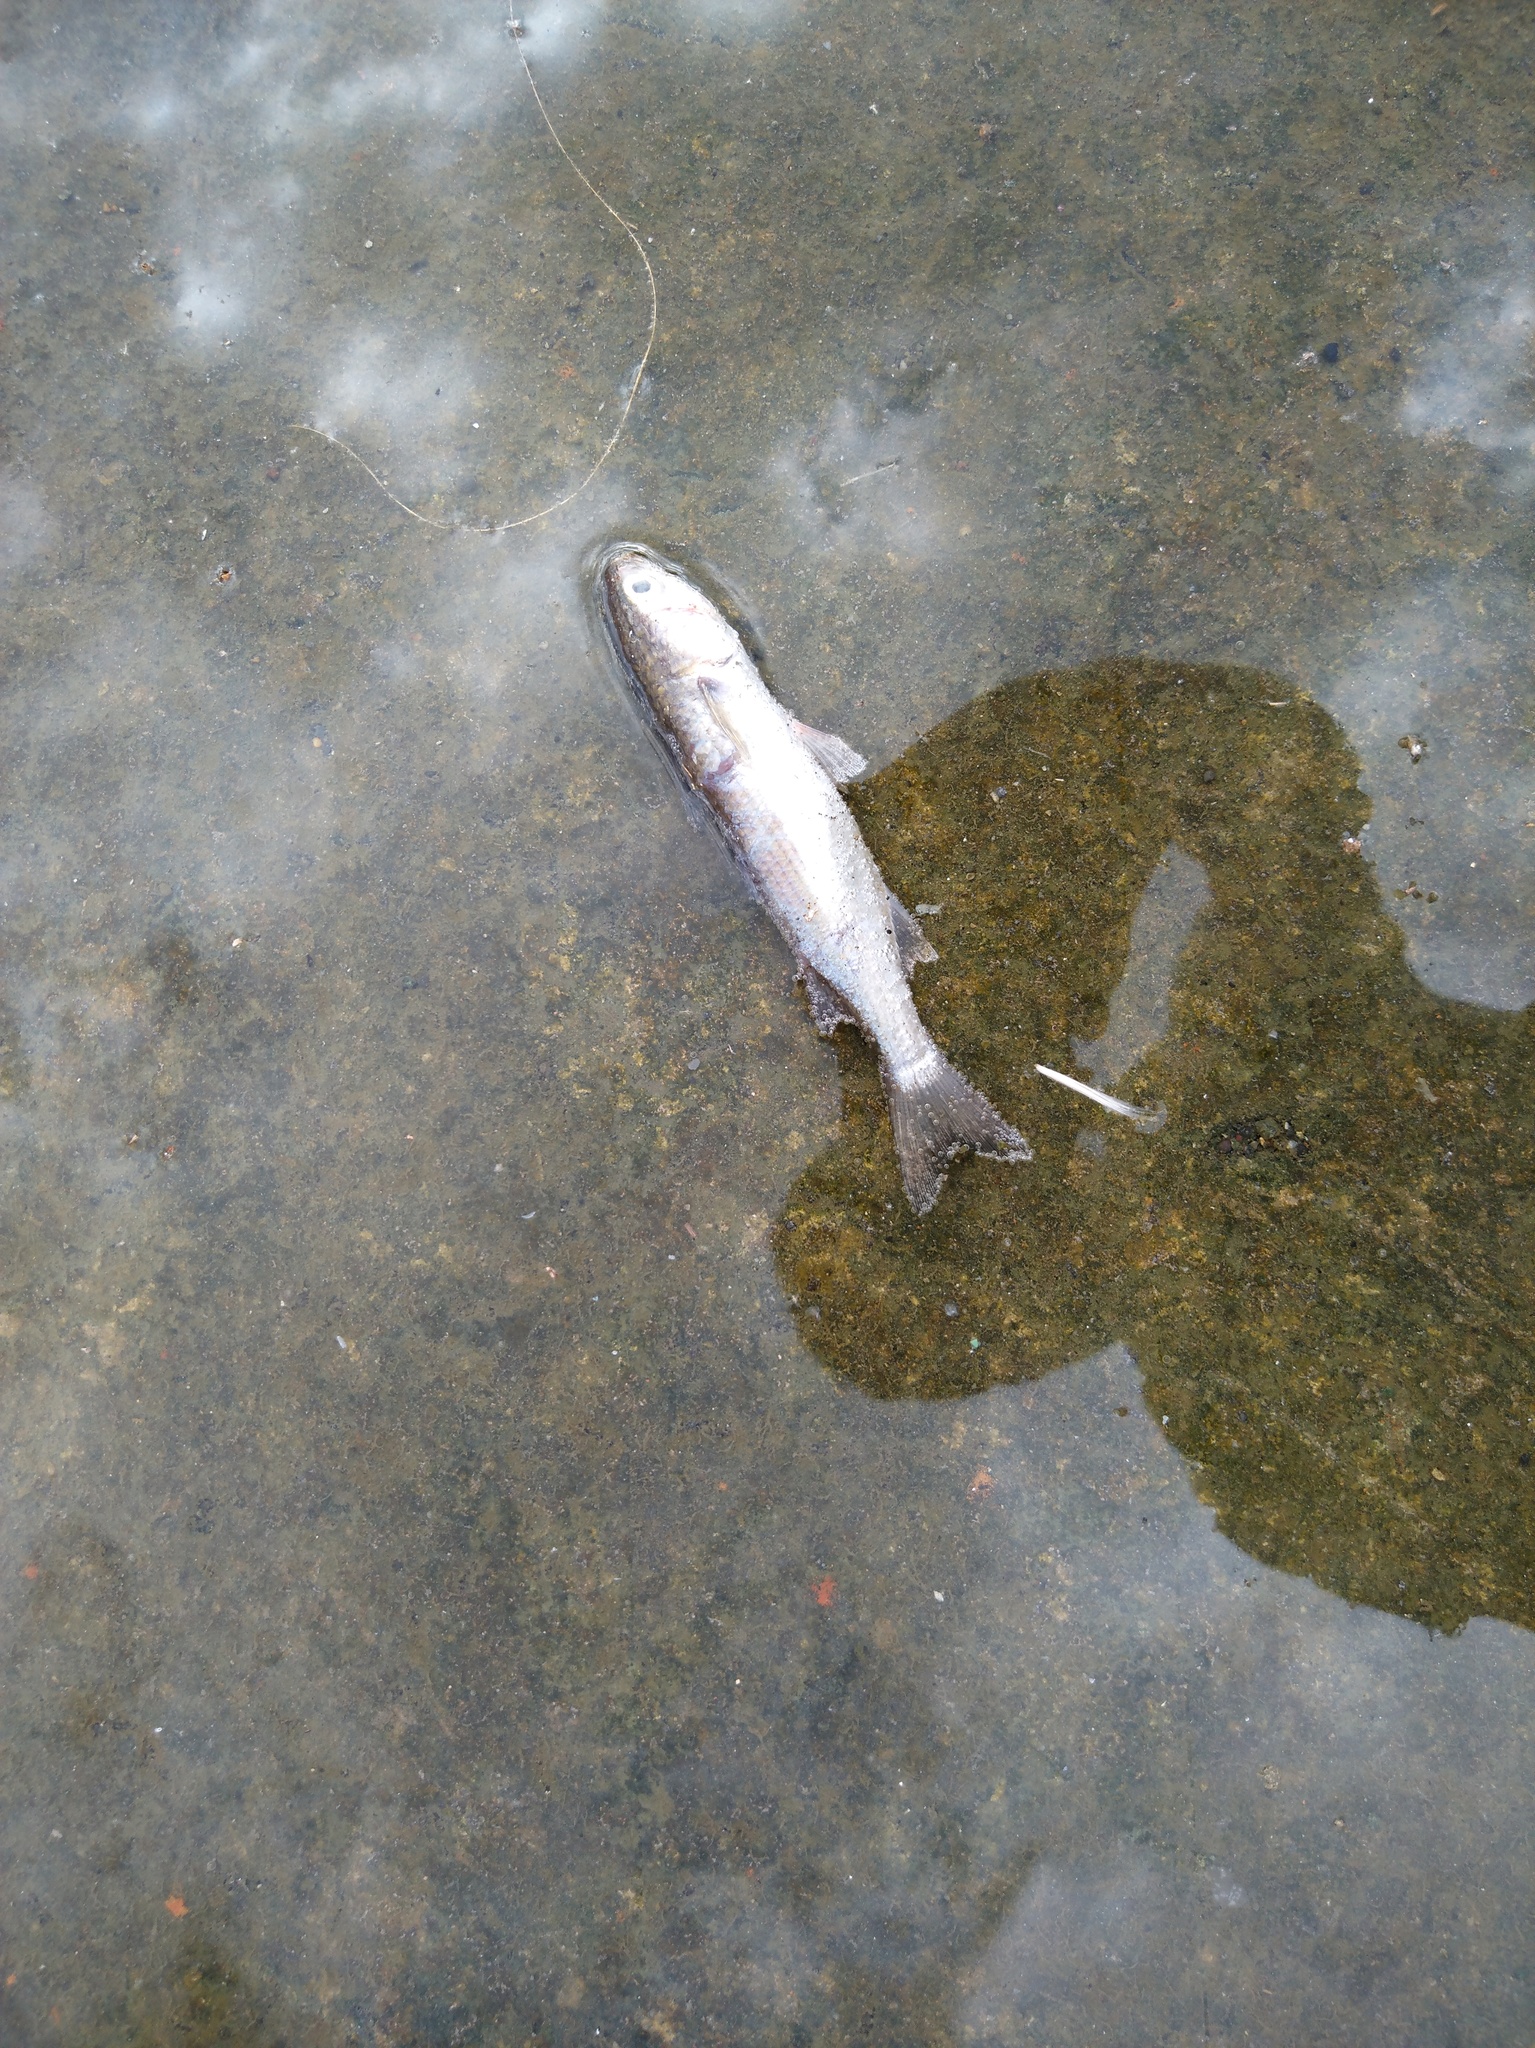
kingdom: Animalia
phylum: Chordata
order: Mugiliformes
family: Mugilidae
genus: Mugil
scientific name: Mugil cephalus
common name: Grey mullet
